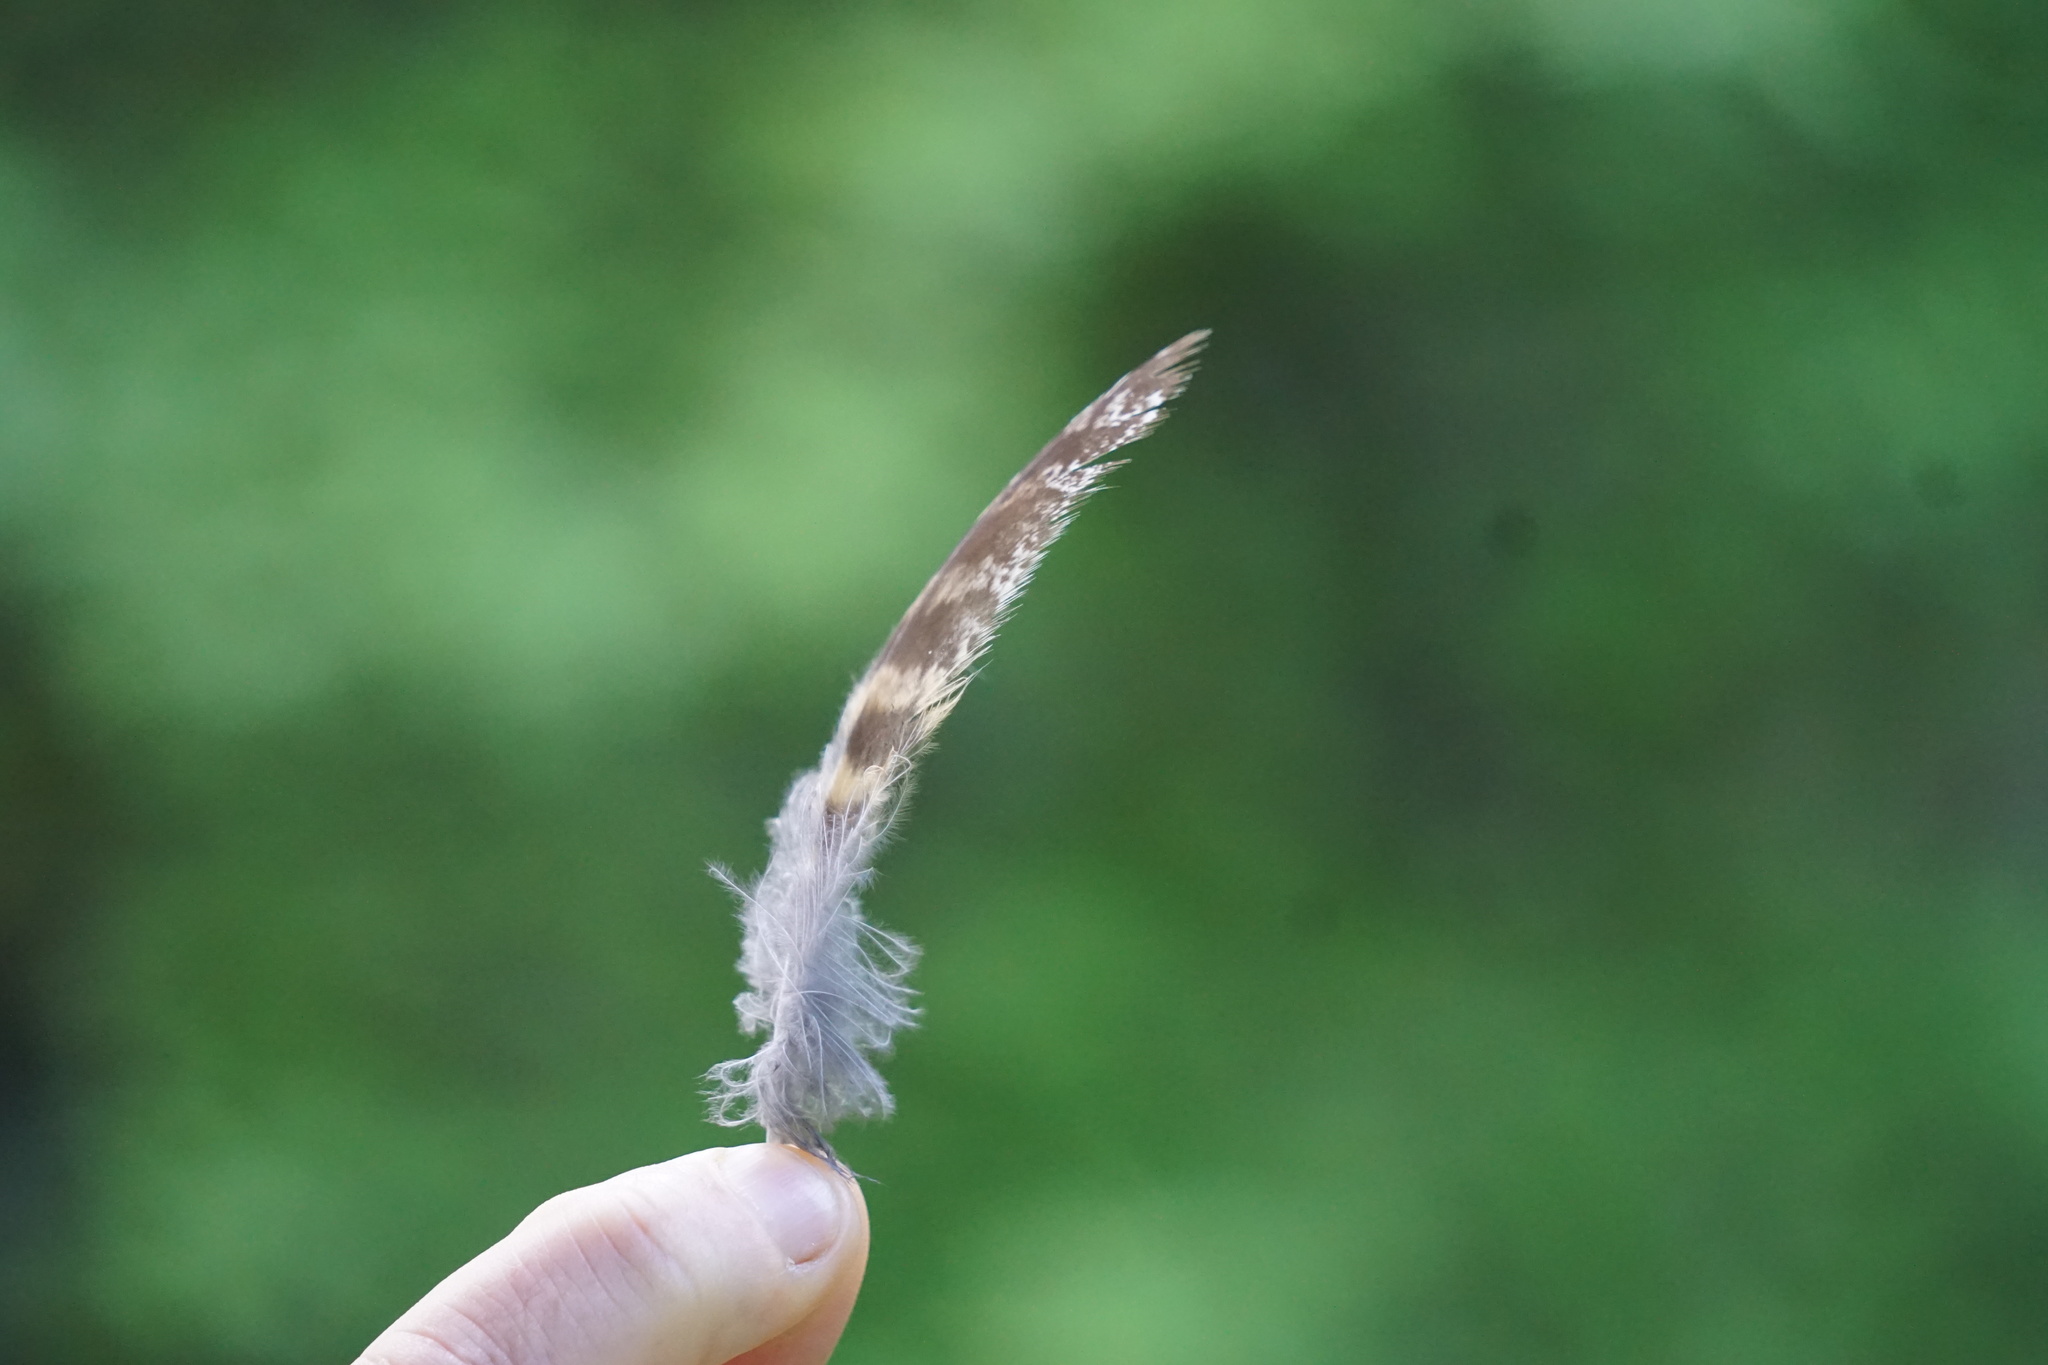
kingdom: Animalia
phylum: Chordata
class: Aves
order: Strigiformes
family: Strigidae
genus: Bubo
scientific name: Bubo virginianus
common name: Great horned owl
